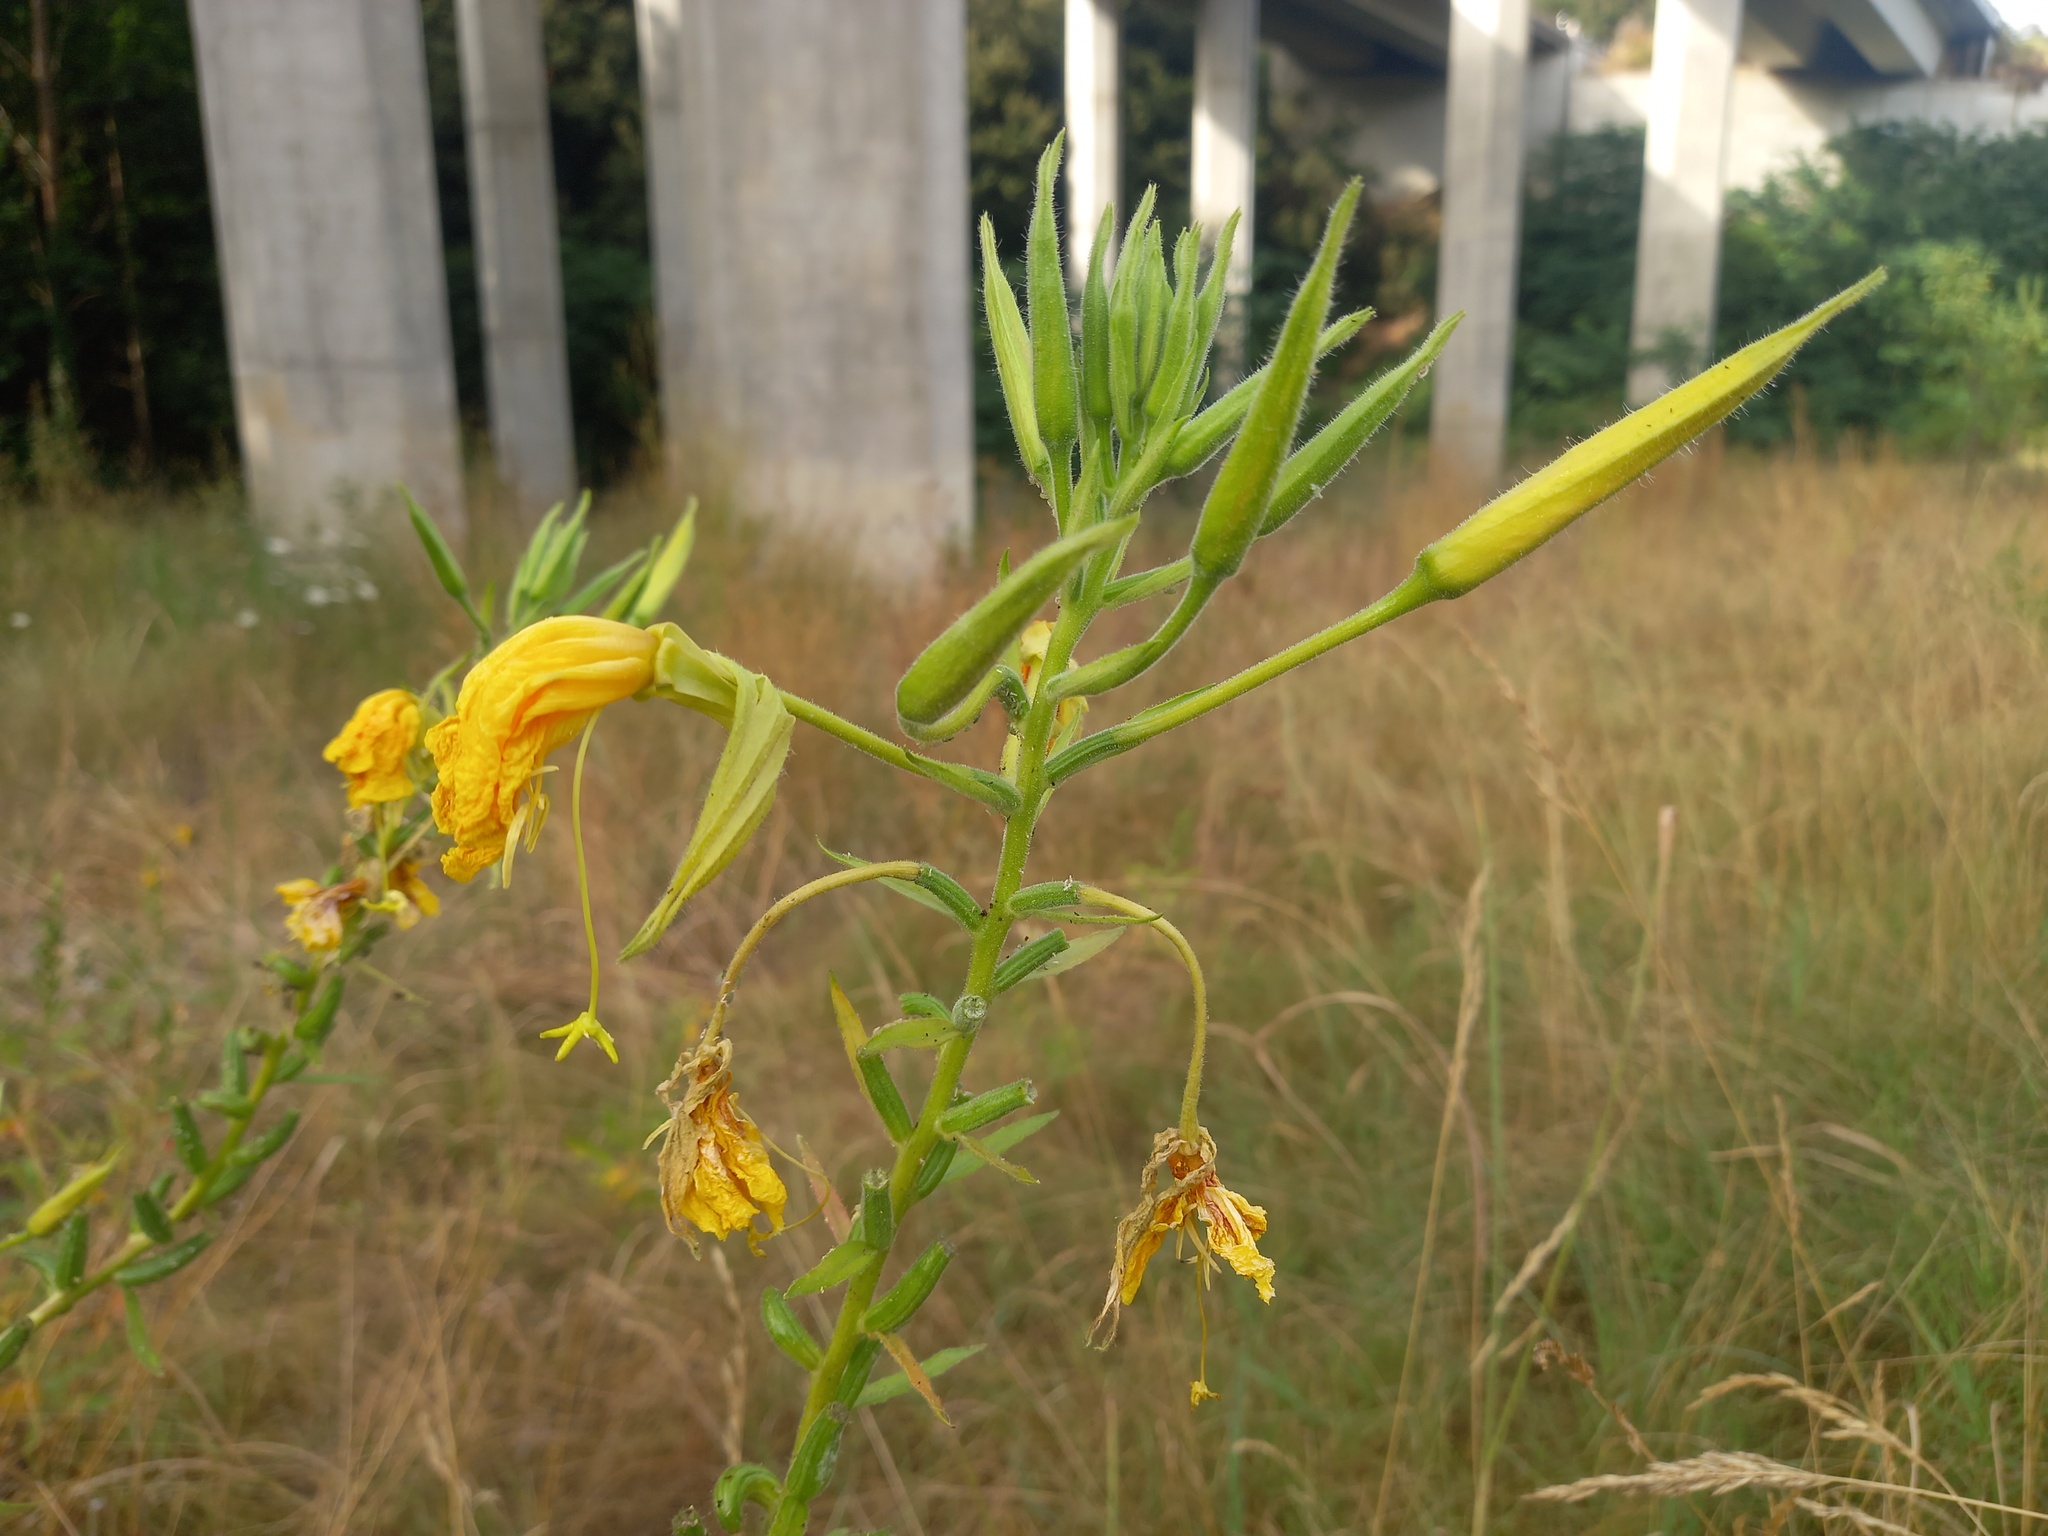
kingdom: Plantae
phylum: Tracheophyta
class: Magnoliopsida
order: Myrtales
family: Onagraceae
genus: Oenothera
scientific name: Oenothera oehlkersii
